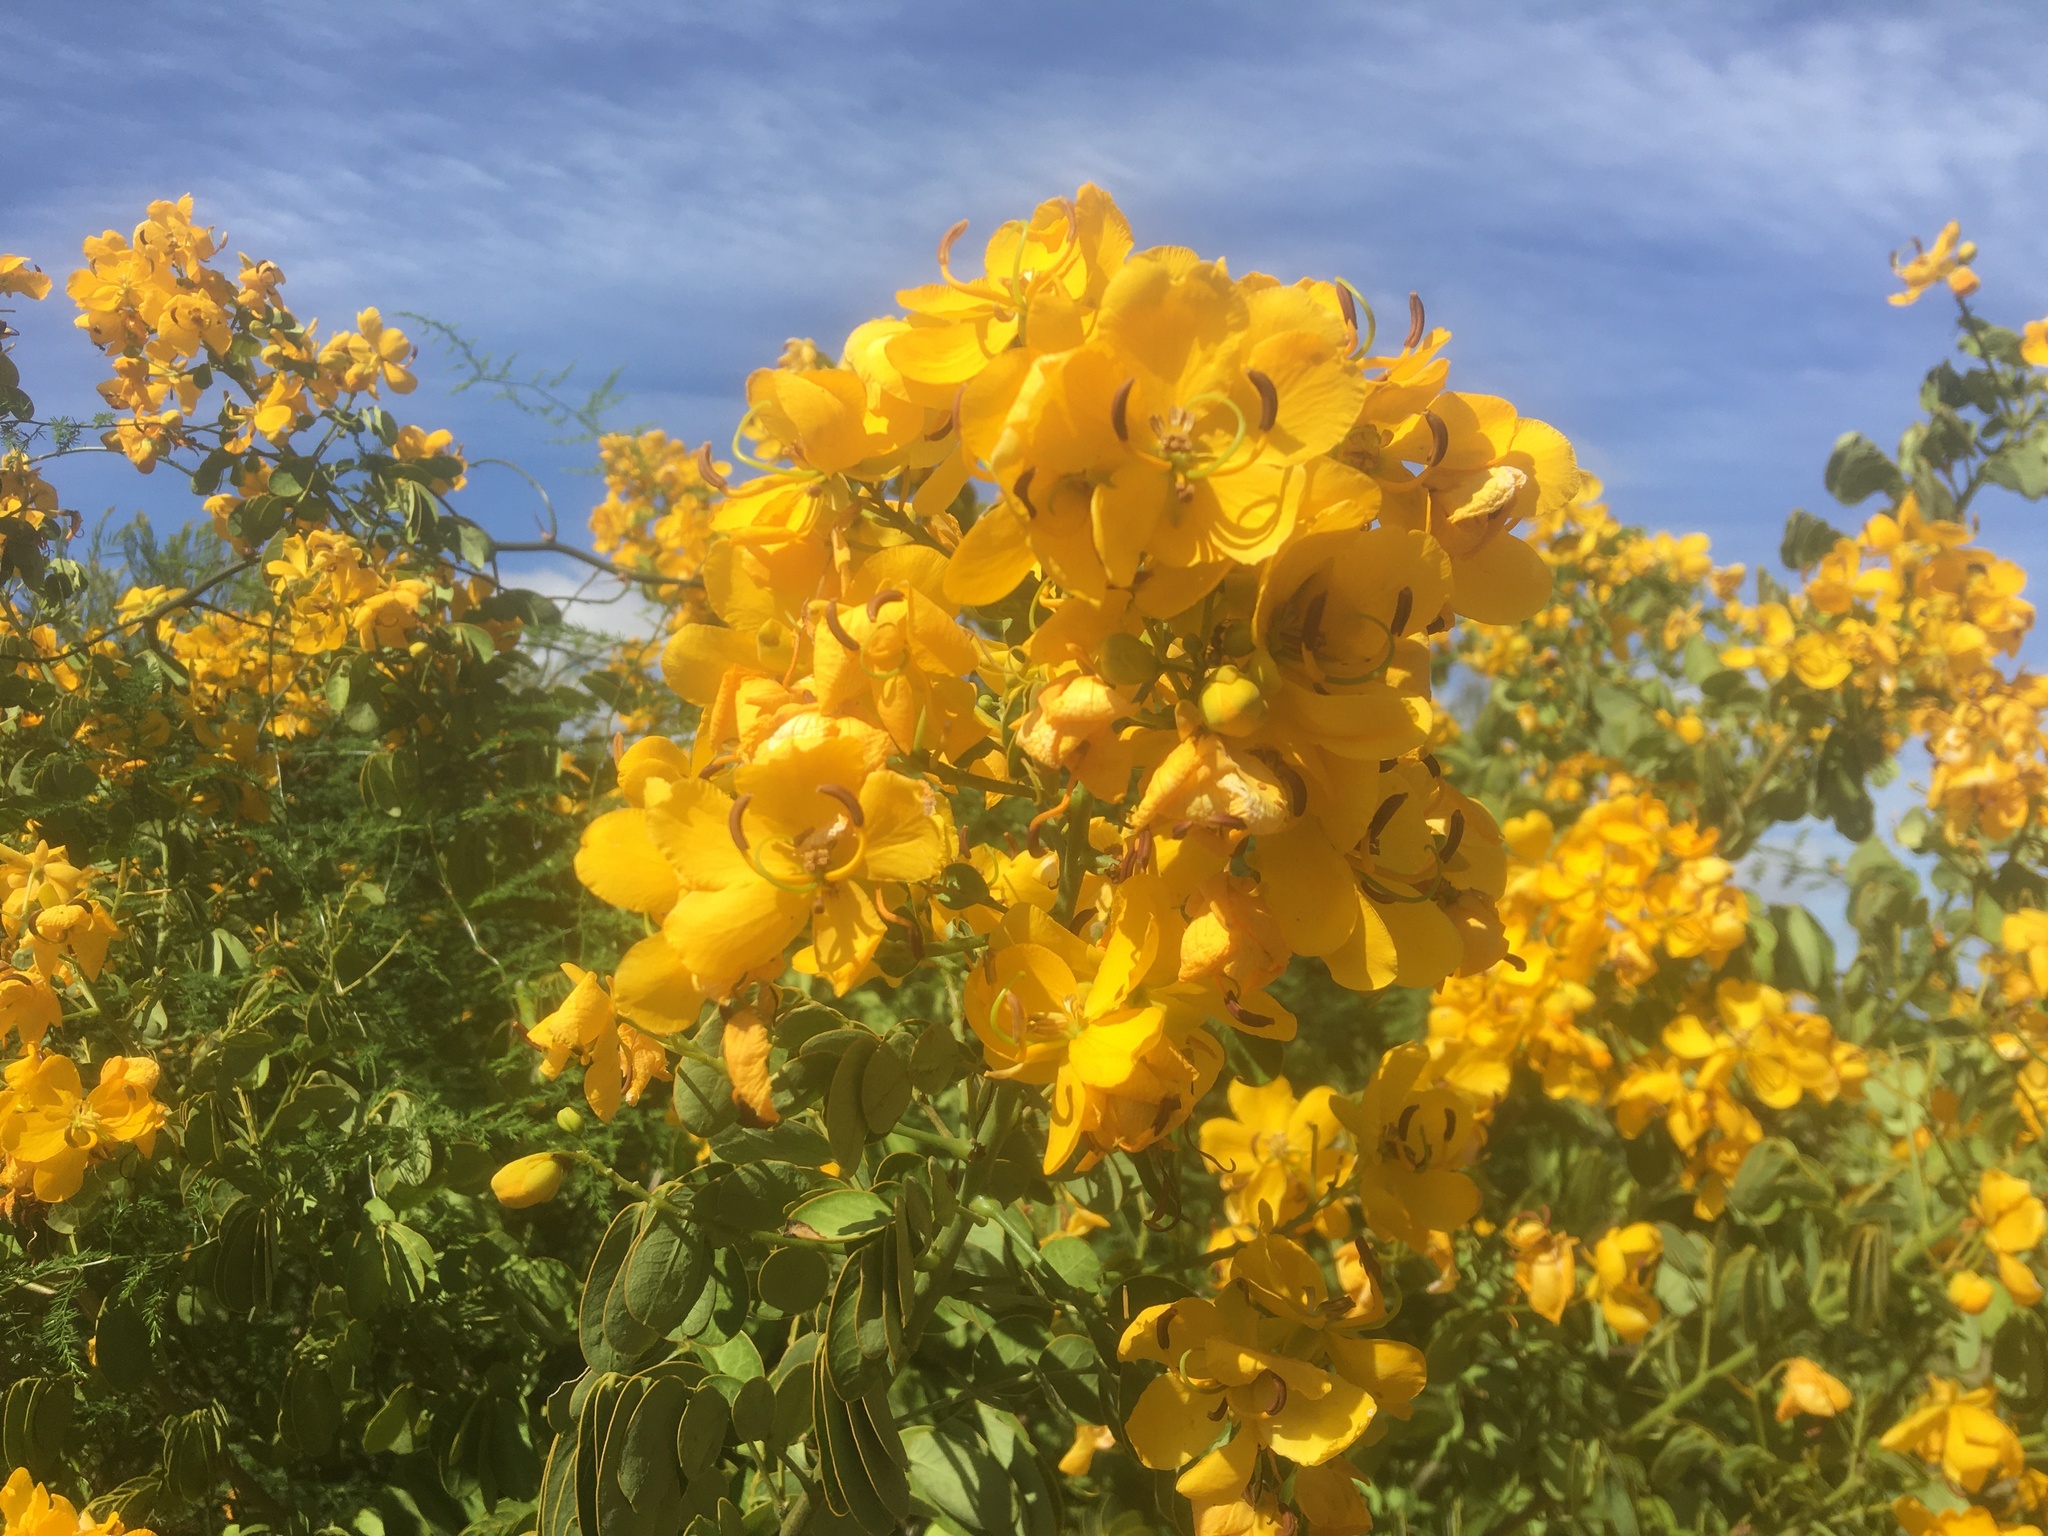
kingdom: Plantae
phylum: Tracheophyta
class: Magnoliopsida
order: Fabales
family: Fabaceae
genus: Senna
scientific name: Senna pendula
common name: Easter cassia
